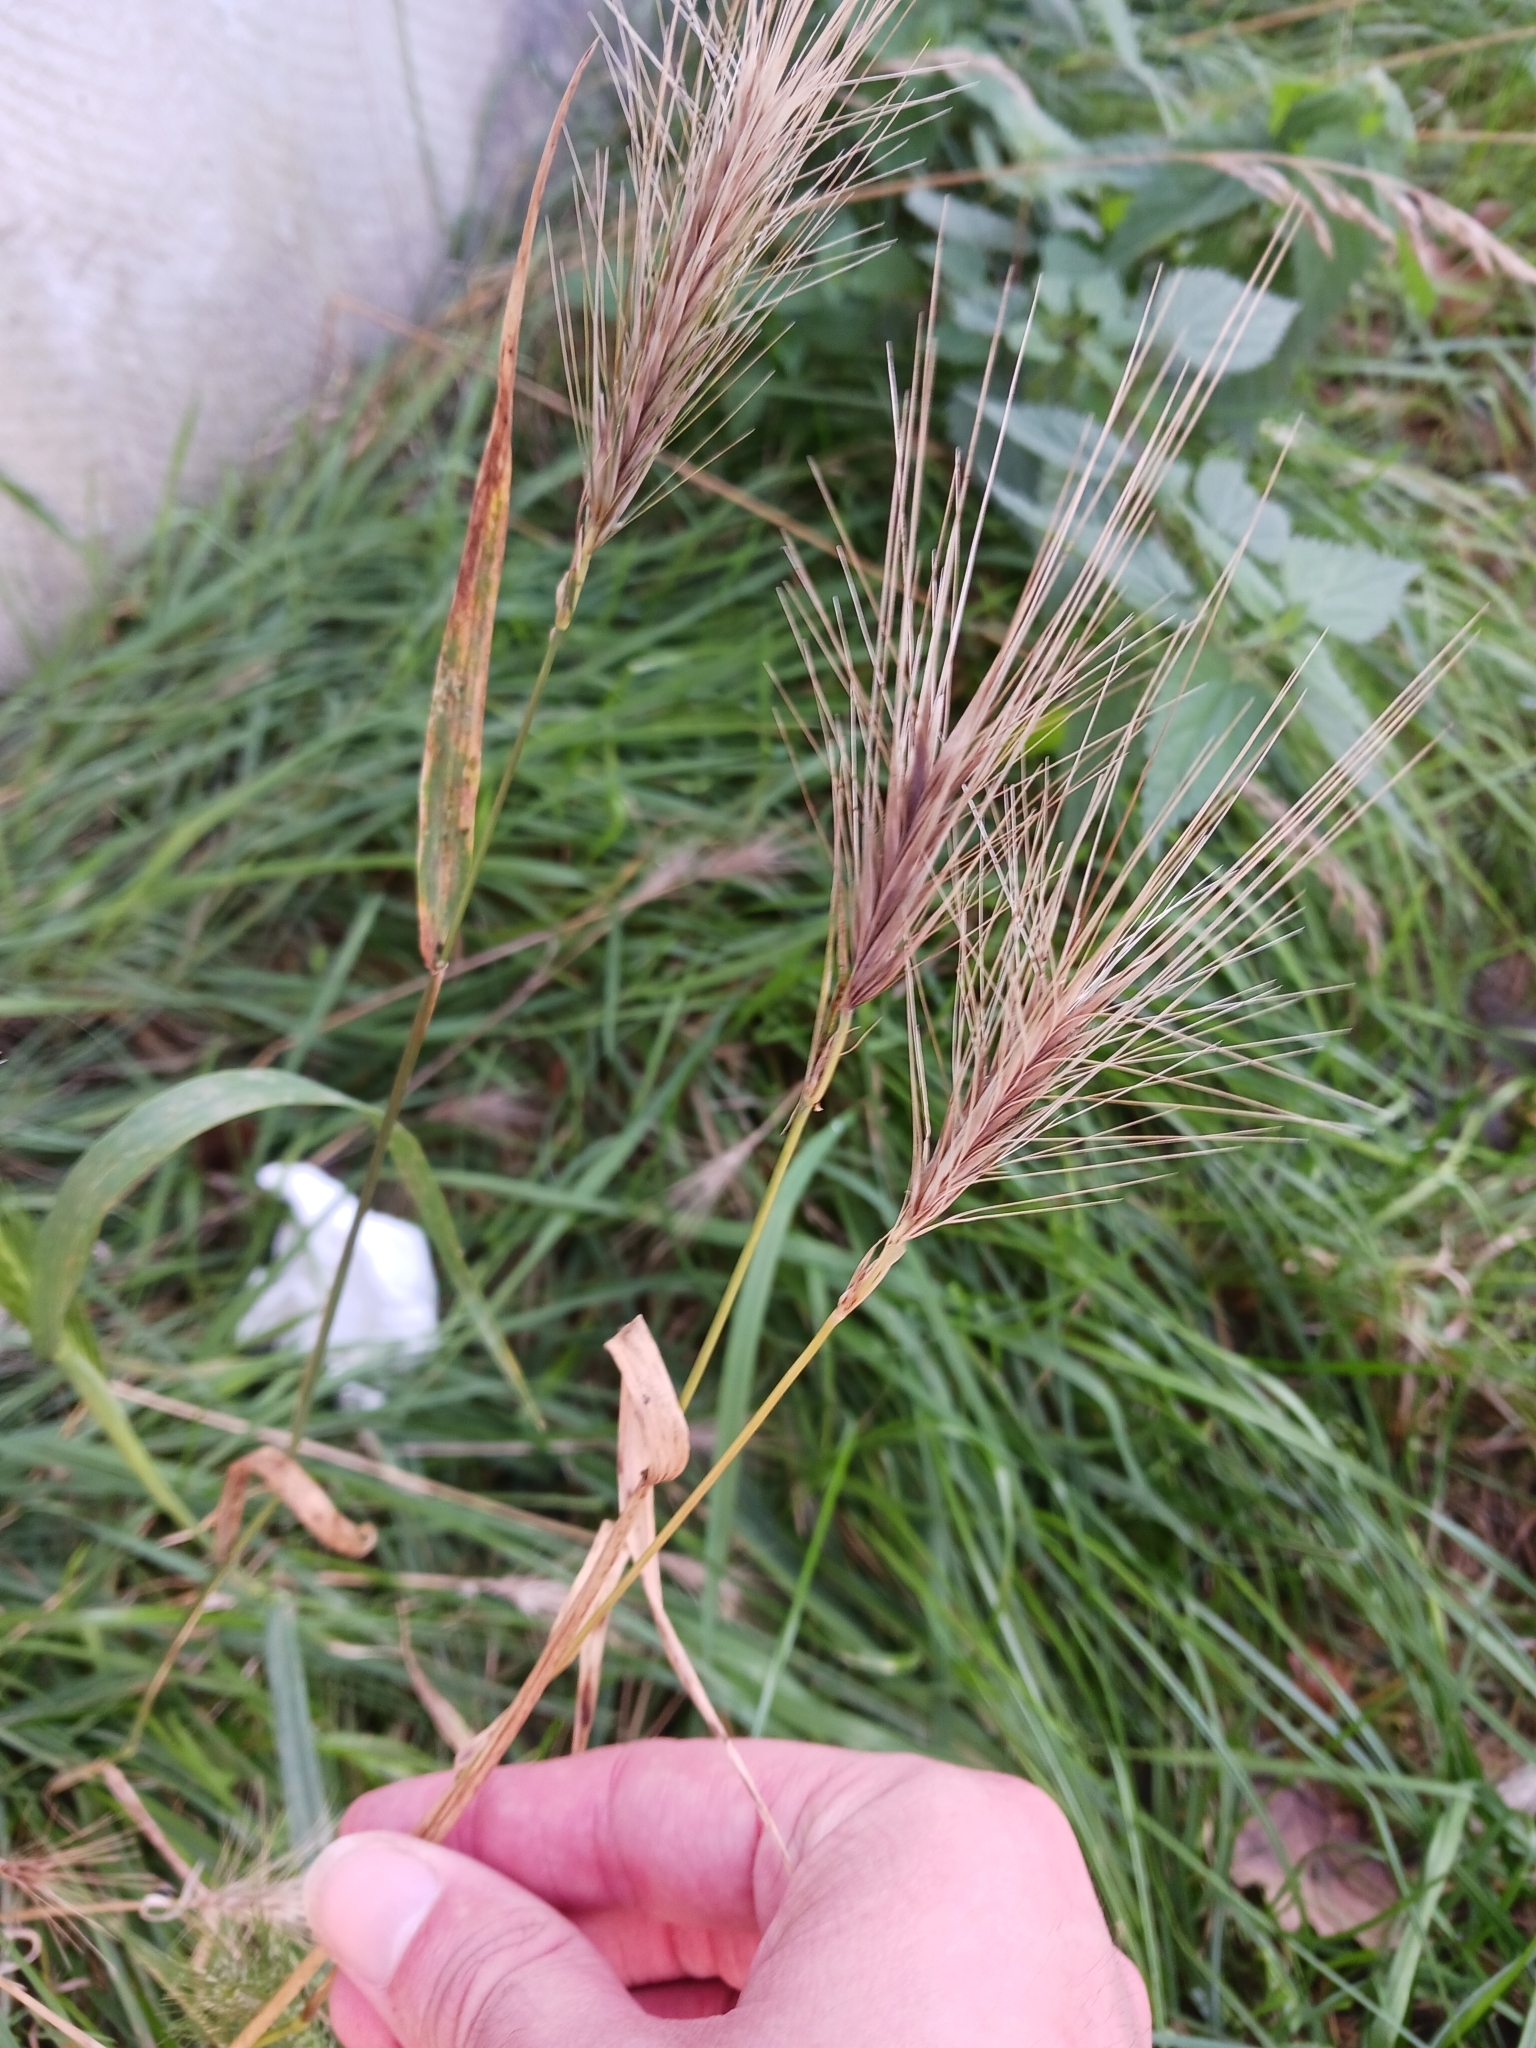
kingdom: Plantae
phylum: Tracheophyta
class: Liliopsida
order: Poales
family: Poaceae
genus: Hordeum
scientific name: Hordeum murinum
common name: Wall barley
